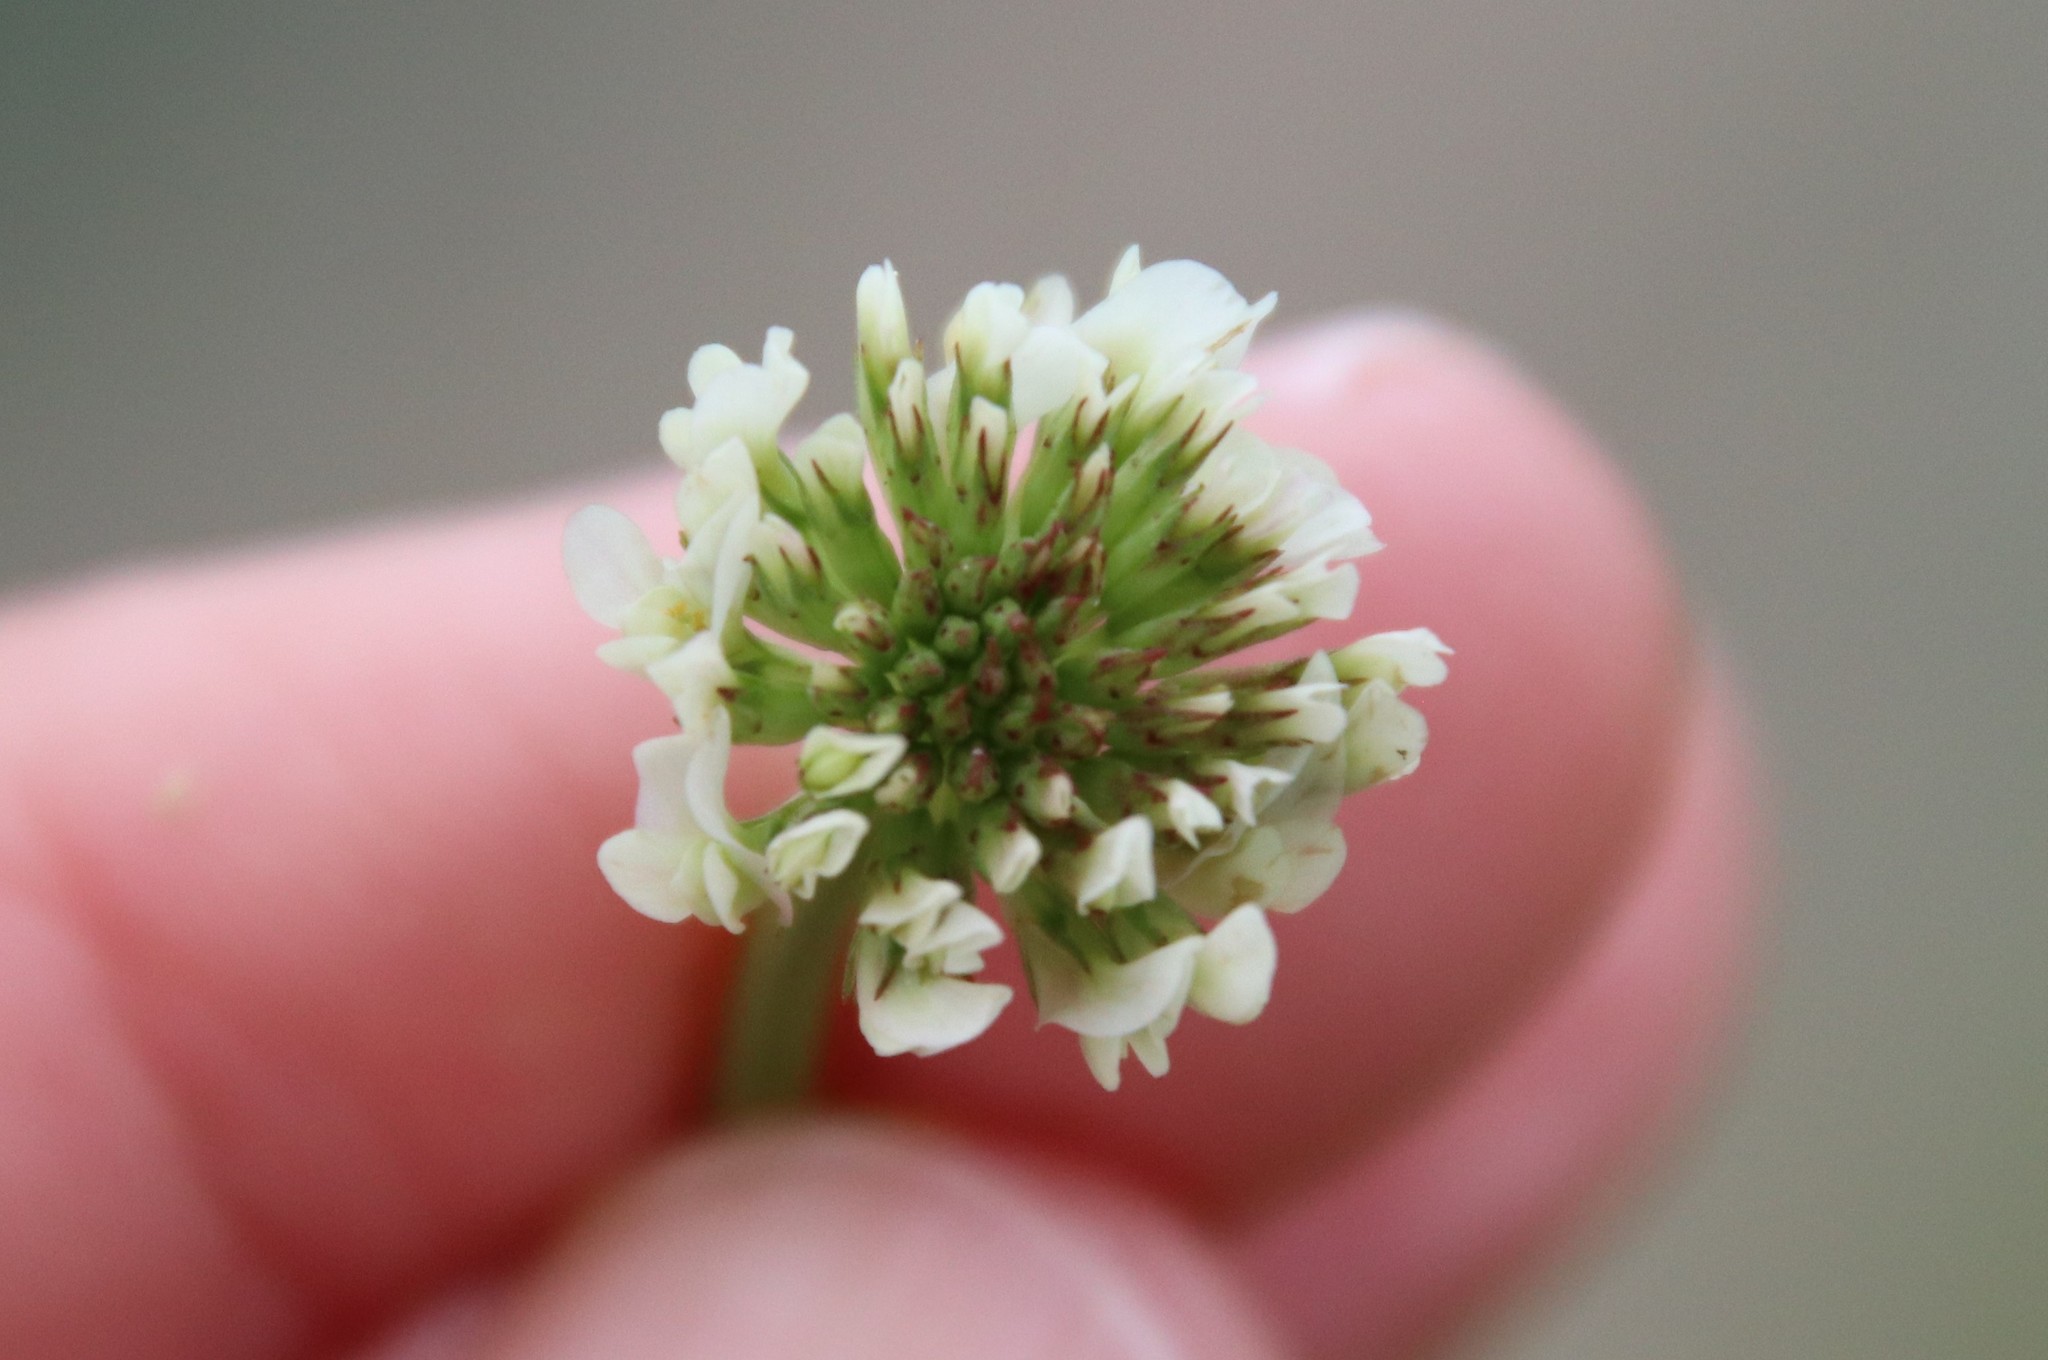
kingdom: Plantae
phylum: Tracheophyta
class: Magnoliopsida
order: Fabales
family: Fabaceae
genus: Trifolium
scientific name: Trifolium repens
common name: White clover
